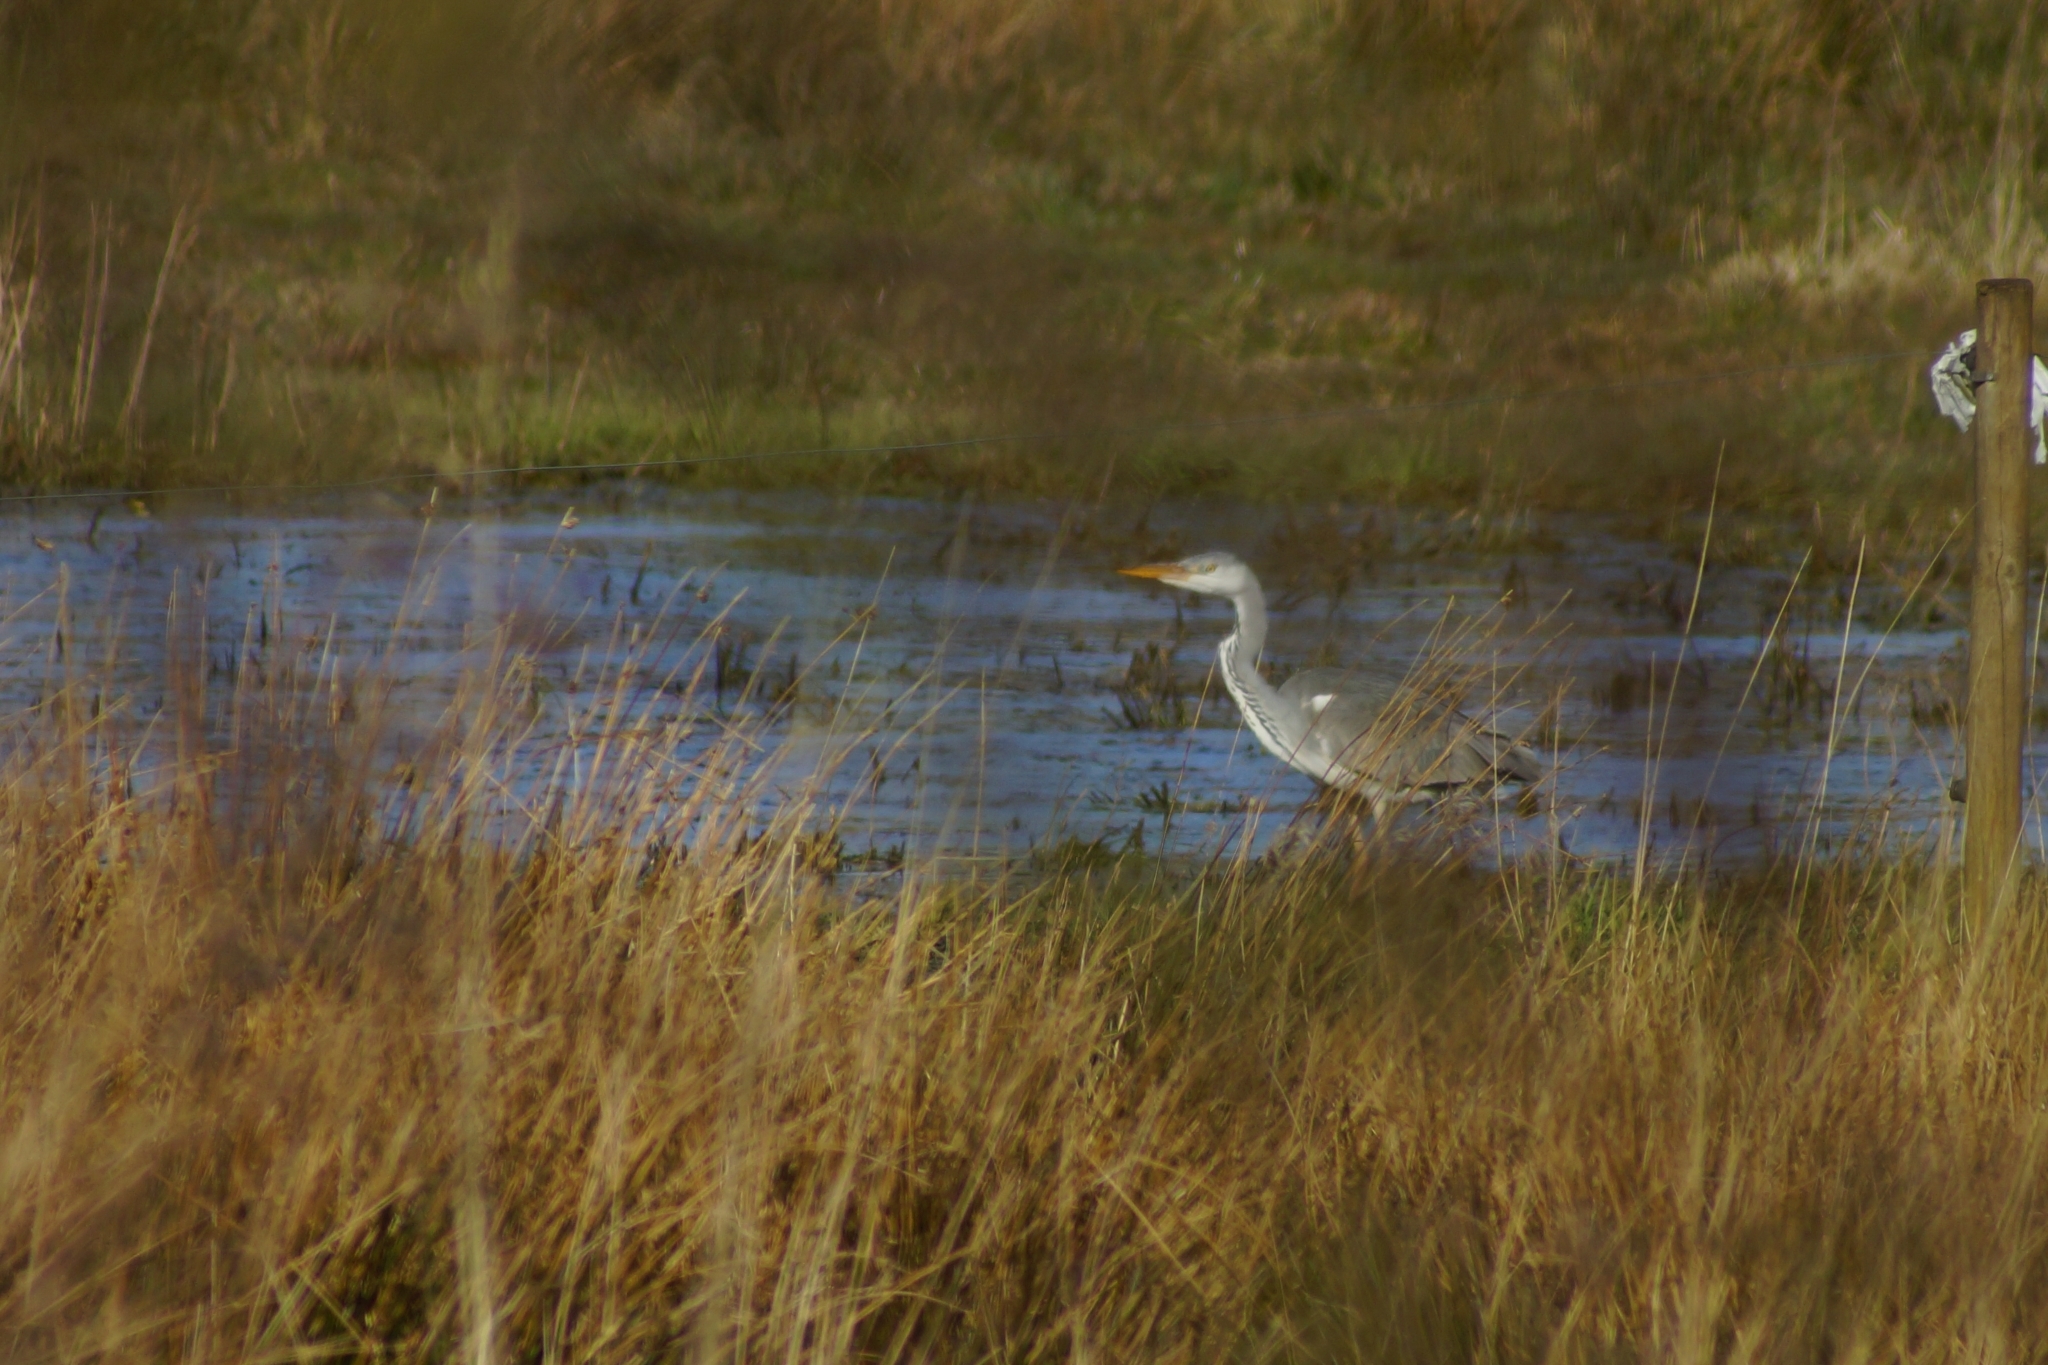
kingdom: Animalia
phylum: Chordata
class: Aves
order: Pelecaniformes
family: Ardeidae
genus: Ardea
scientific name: Ardea cinerea
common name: Grey heron
